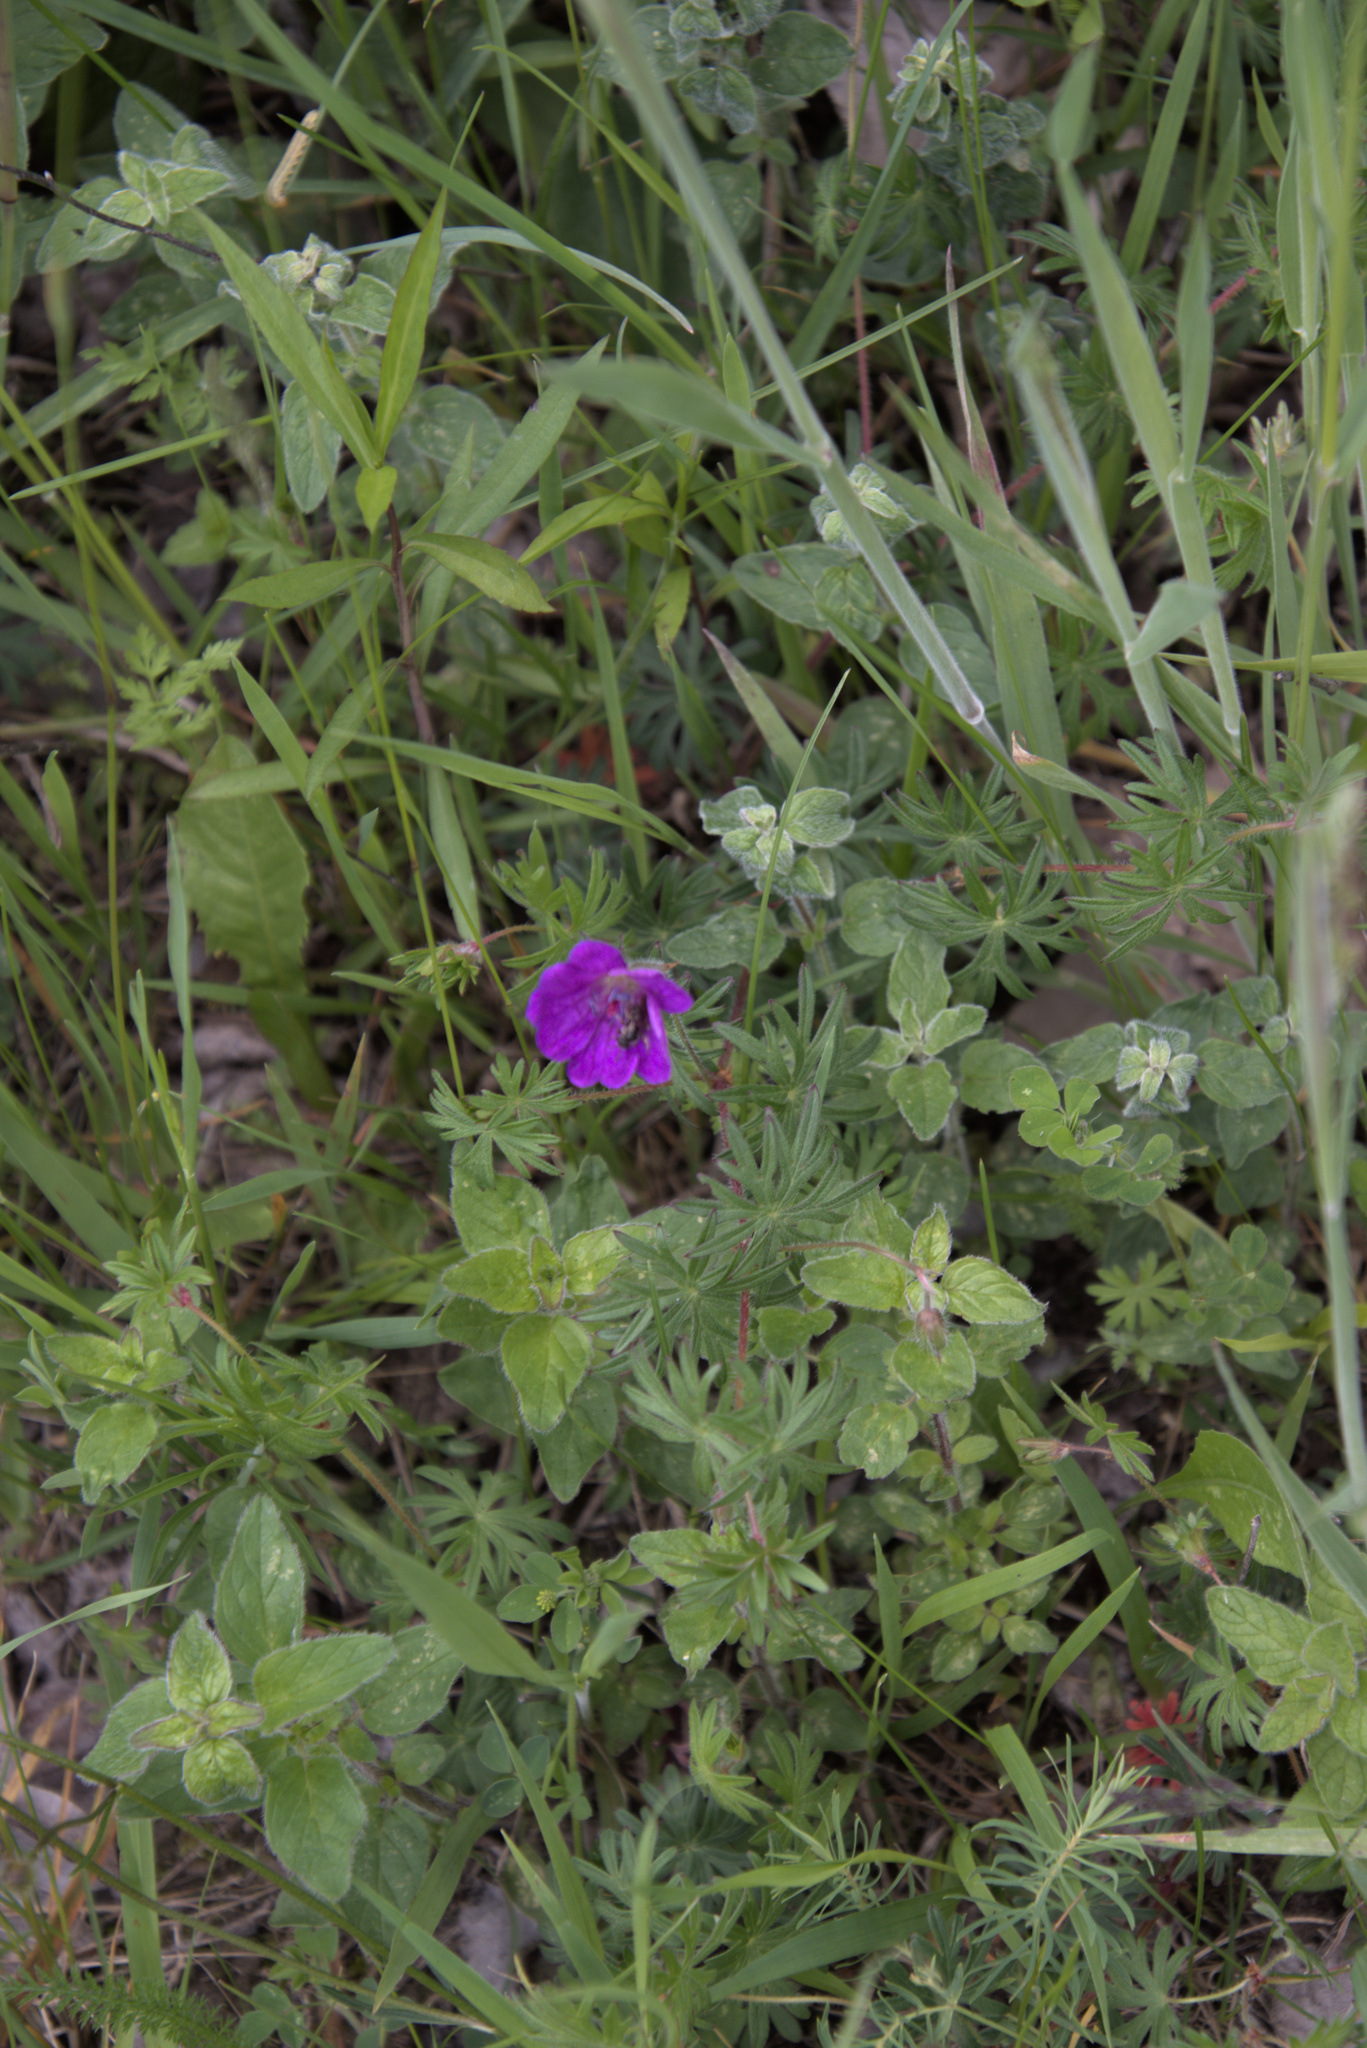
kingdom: Plantae
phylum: Tracheophyta
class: Magnoliopsida
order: Geraniales
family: Geraniaceae
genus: Geranium
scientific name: Geranium sanguineum
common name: Bloody crane's-bill
